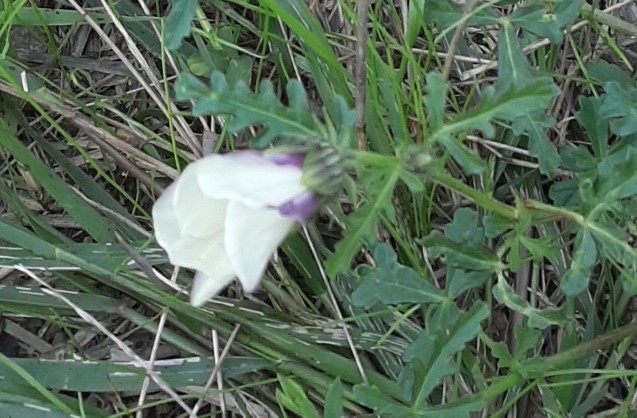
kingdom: Plantae
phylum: Tracheophyta
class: Magnoliopsida
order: Malvales
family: Malvaceae
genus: Hibiscus
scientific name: Hibiscus trionum
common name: Bladder ketmia
